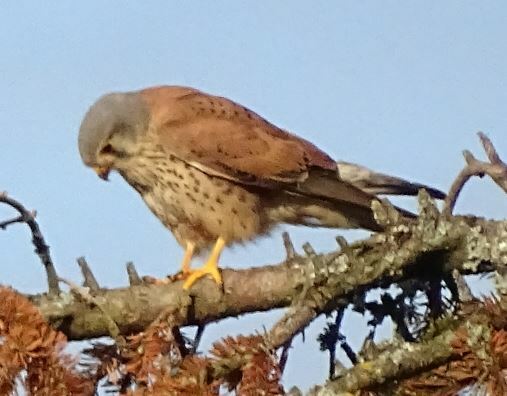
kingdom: Animalia
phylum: Chordata
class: Aves
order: Falconiformes
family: Falconidae
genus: Falco
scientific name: Falco tinnunculus
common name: Common kestrel
